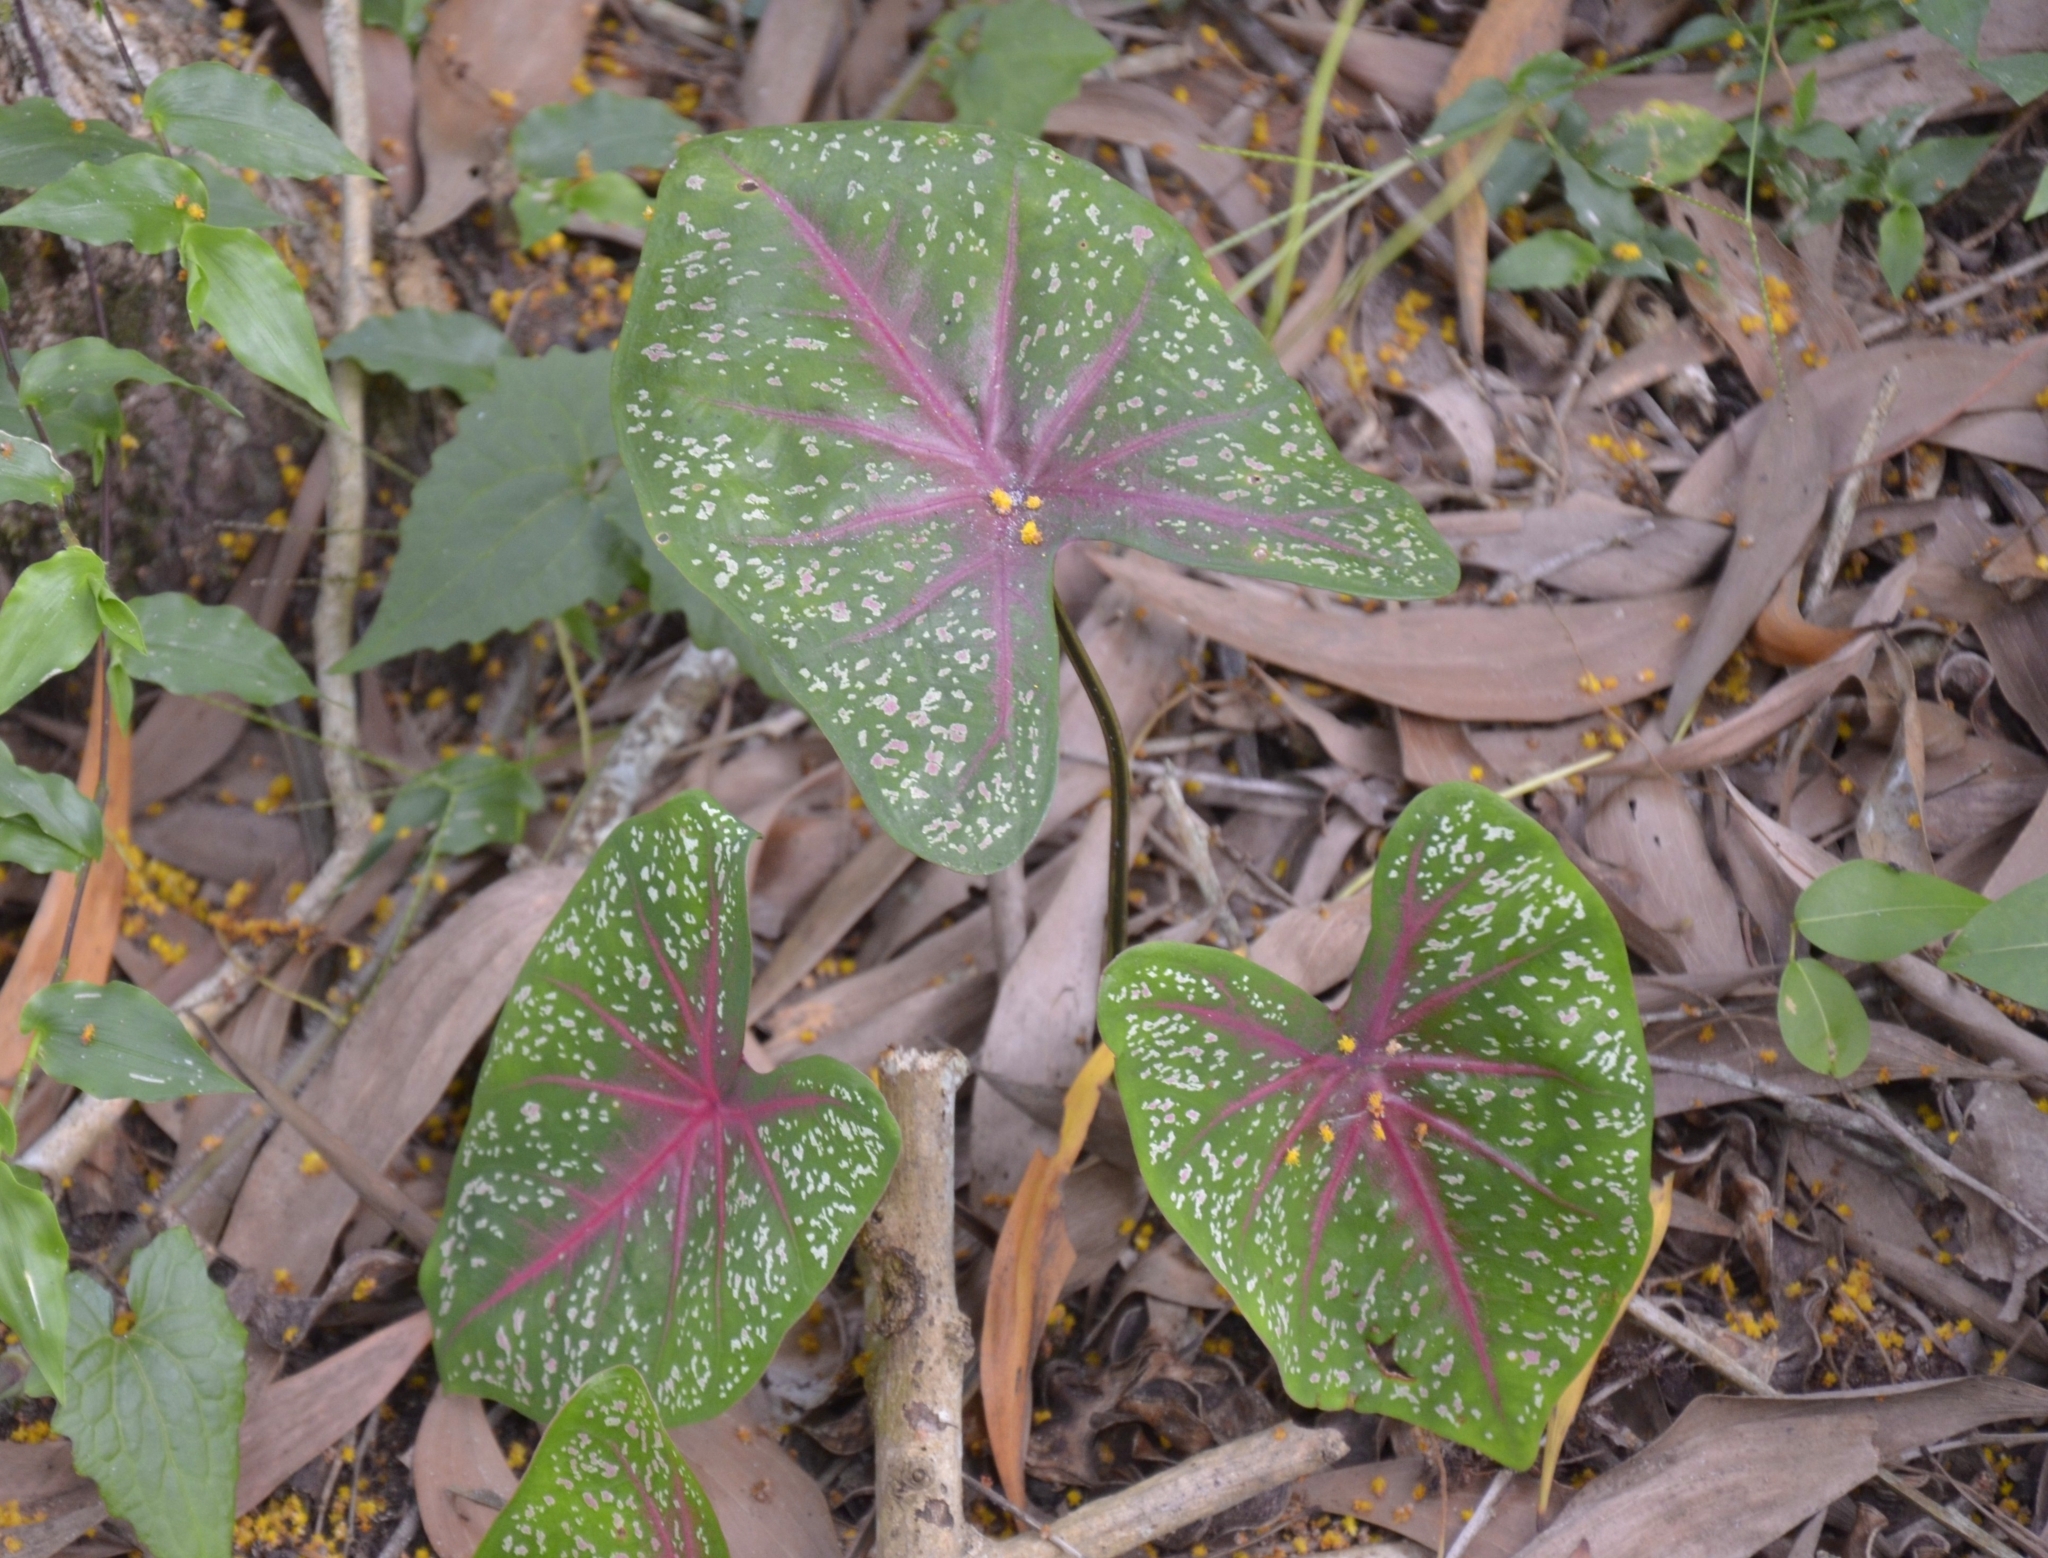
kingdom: Plantae
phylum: Tracheophyta
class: Liliopsida
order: Alismatales
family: Araceae
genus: Caladium
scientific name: Caladium bicolor
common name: Artist's pallet
